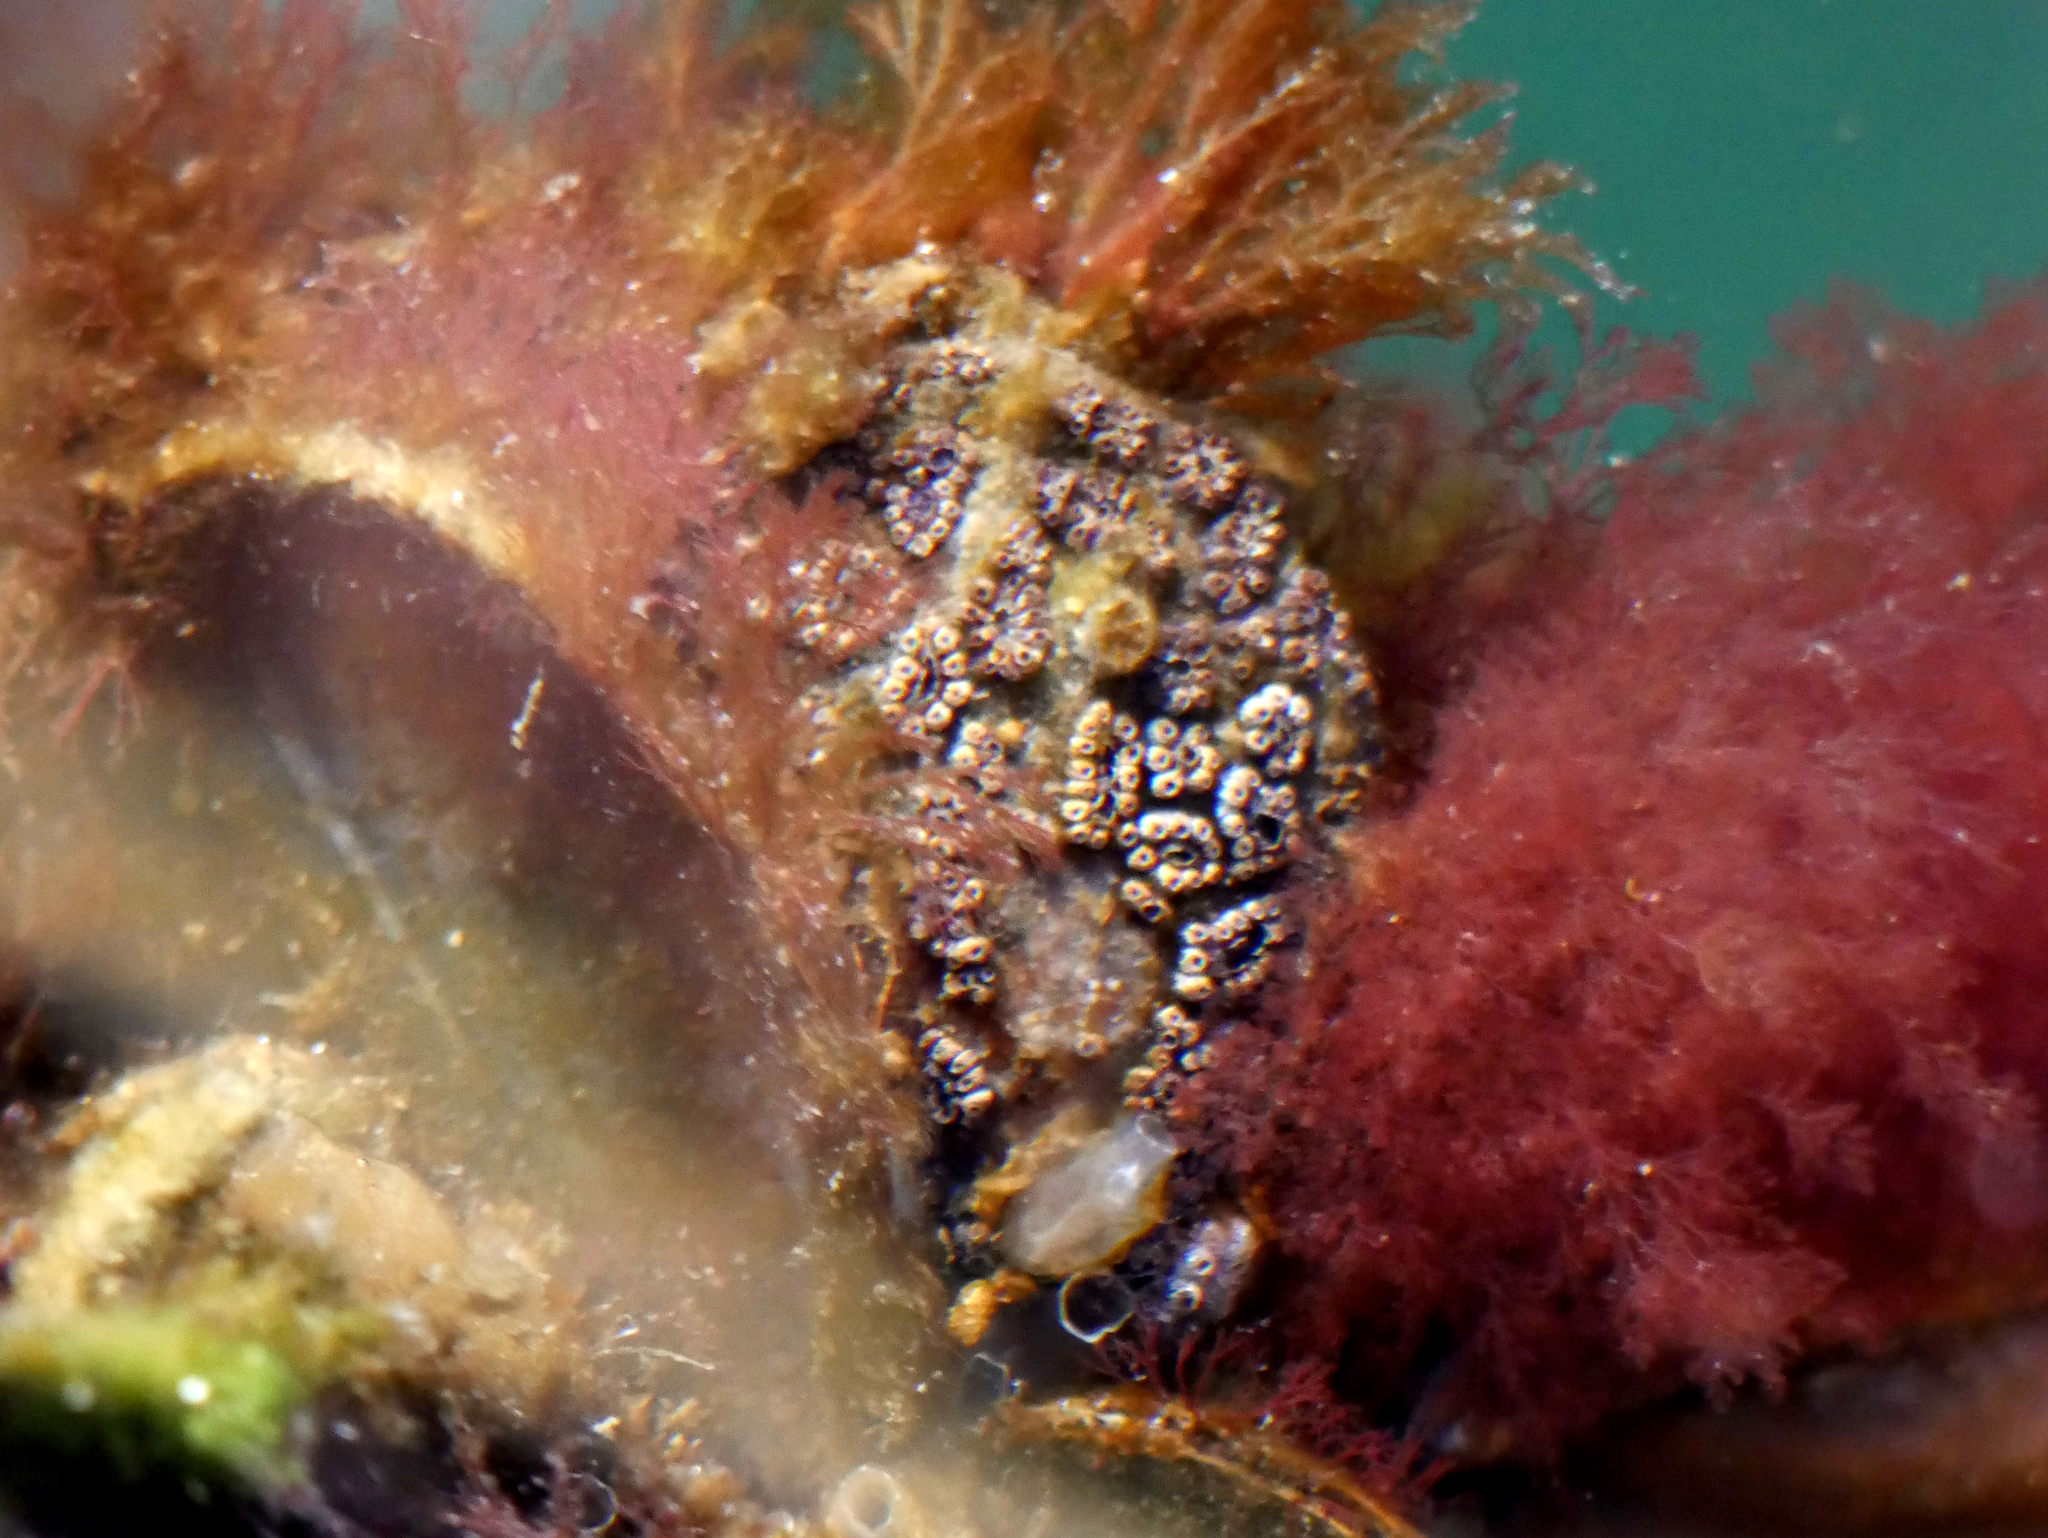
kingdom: Animalia
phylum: Chordata
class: Ascidiacea
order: Stolidobranchia
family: Styelidae
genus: Botryllus
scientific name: Botryllus schlosseri
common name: Golden star tunicate
